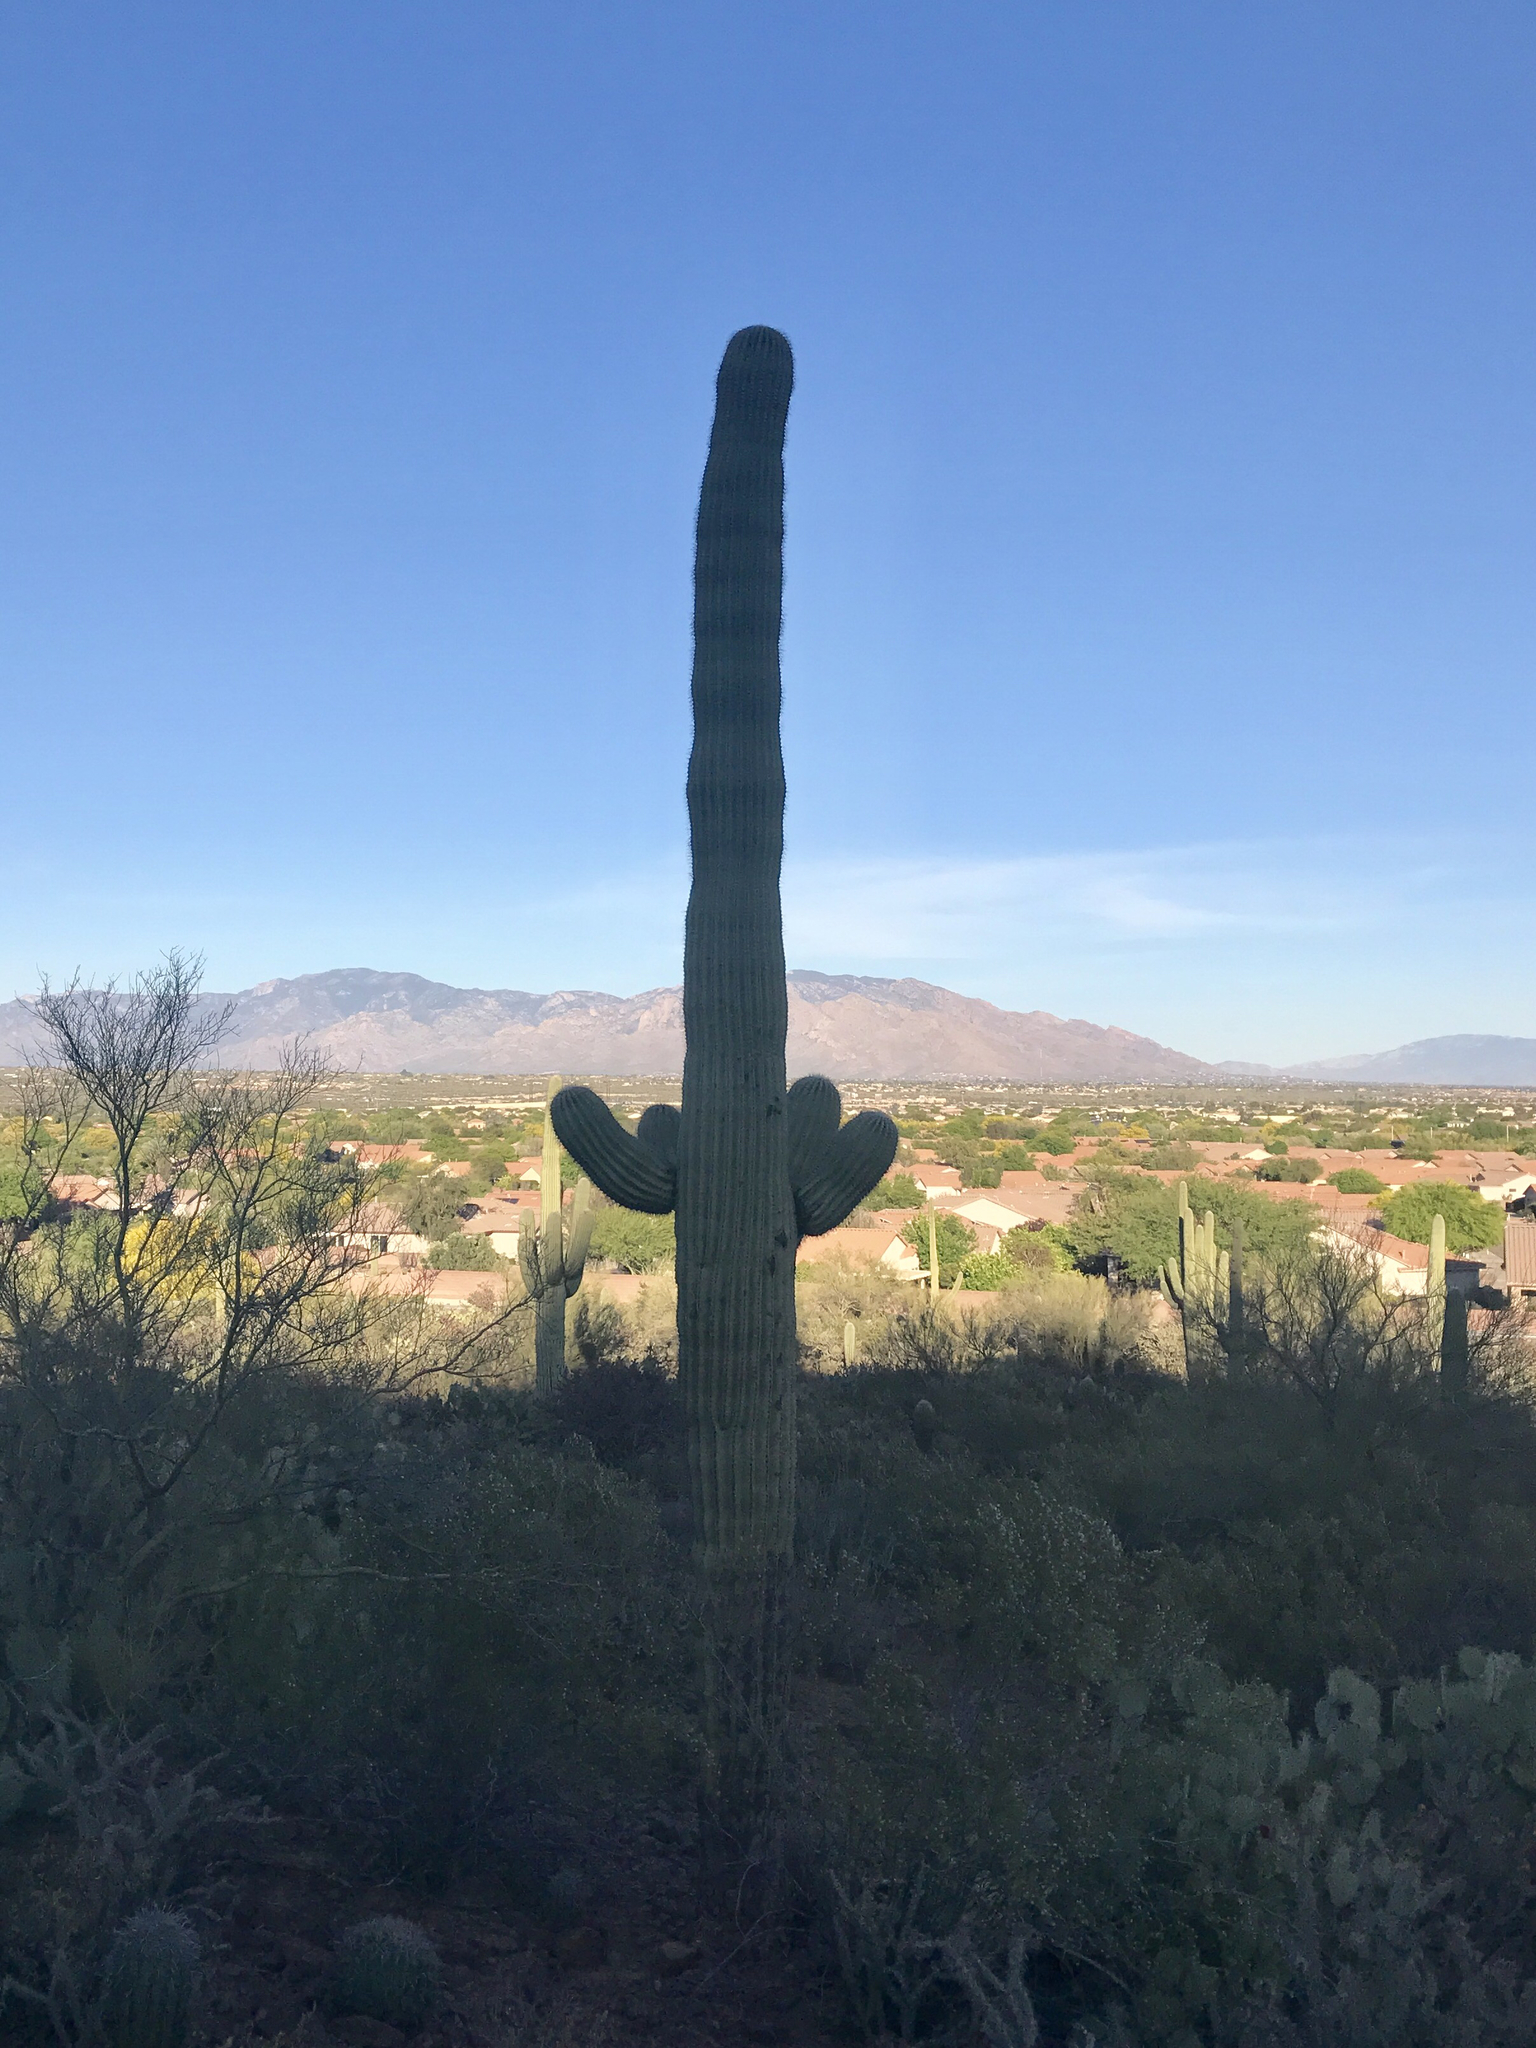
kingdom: Plantae
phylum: Tracheophyta
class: Magnoliopsida
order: Caryophyllales
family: Cactaceae
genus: Carnegiea
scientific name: Carnegiea gigantea
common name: Saguaro
